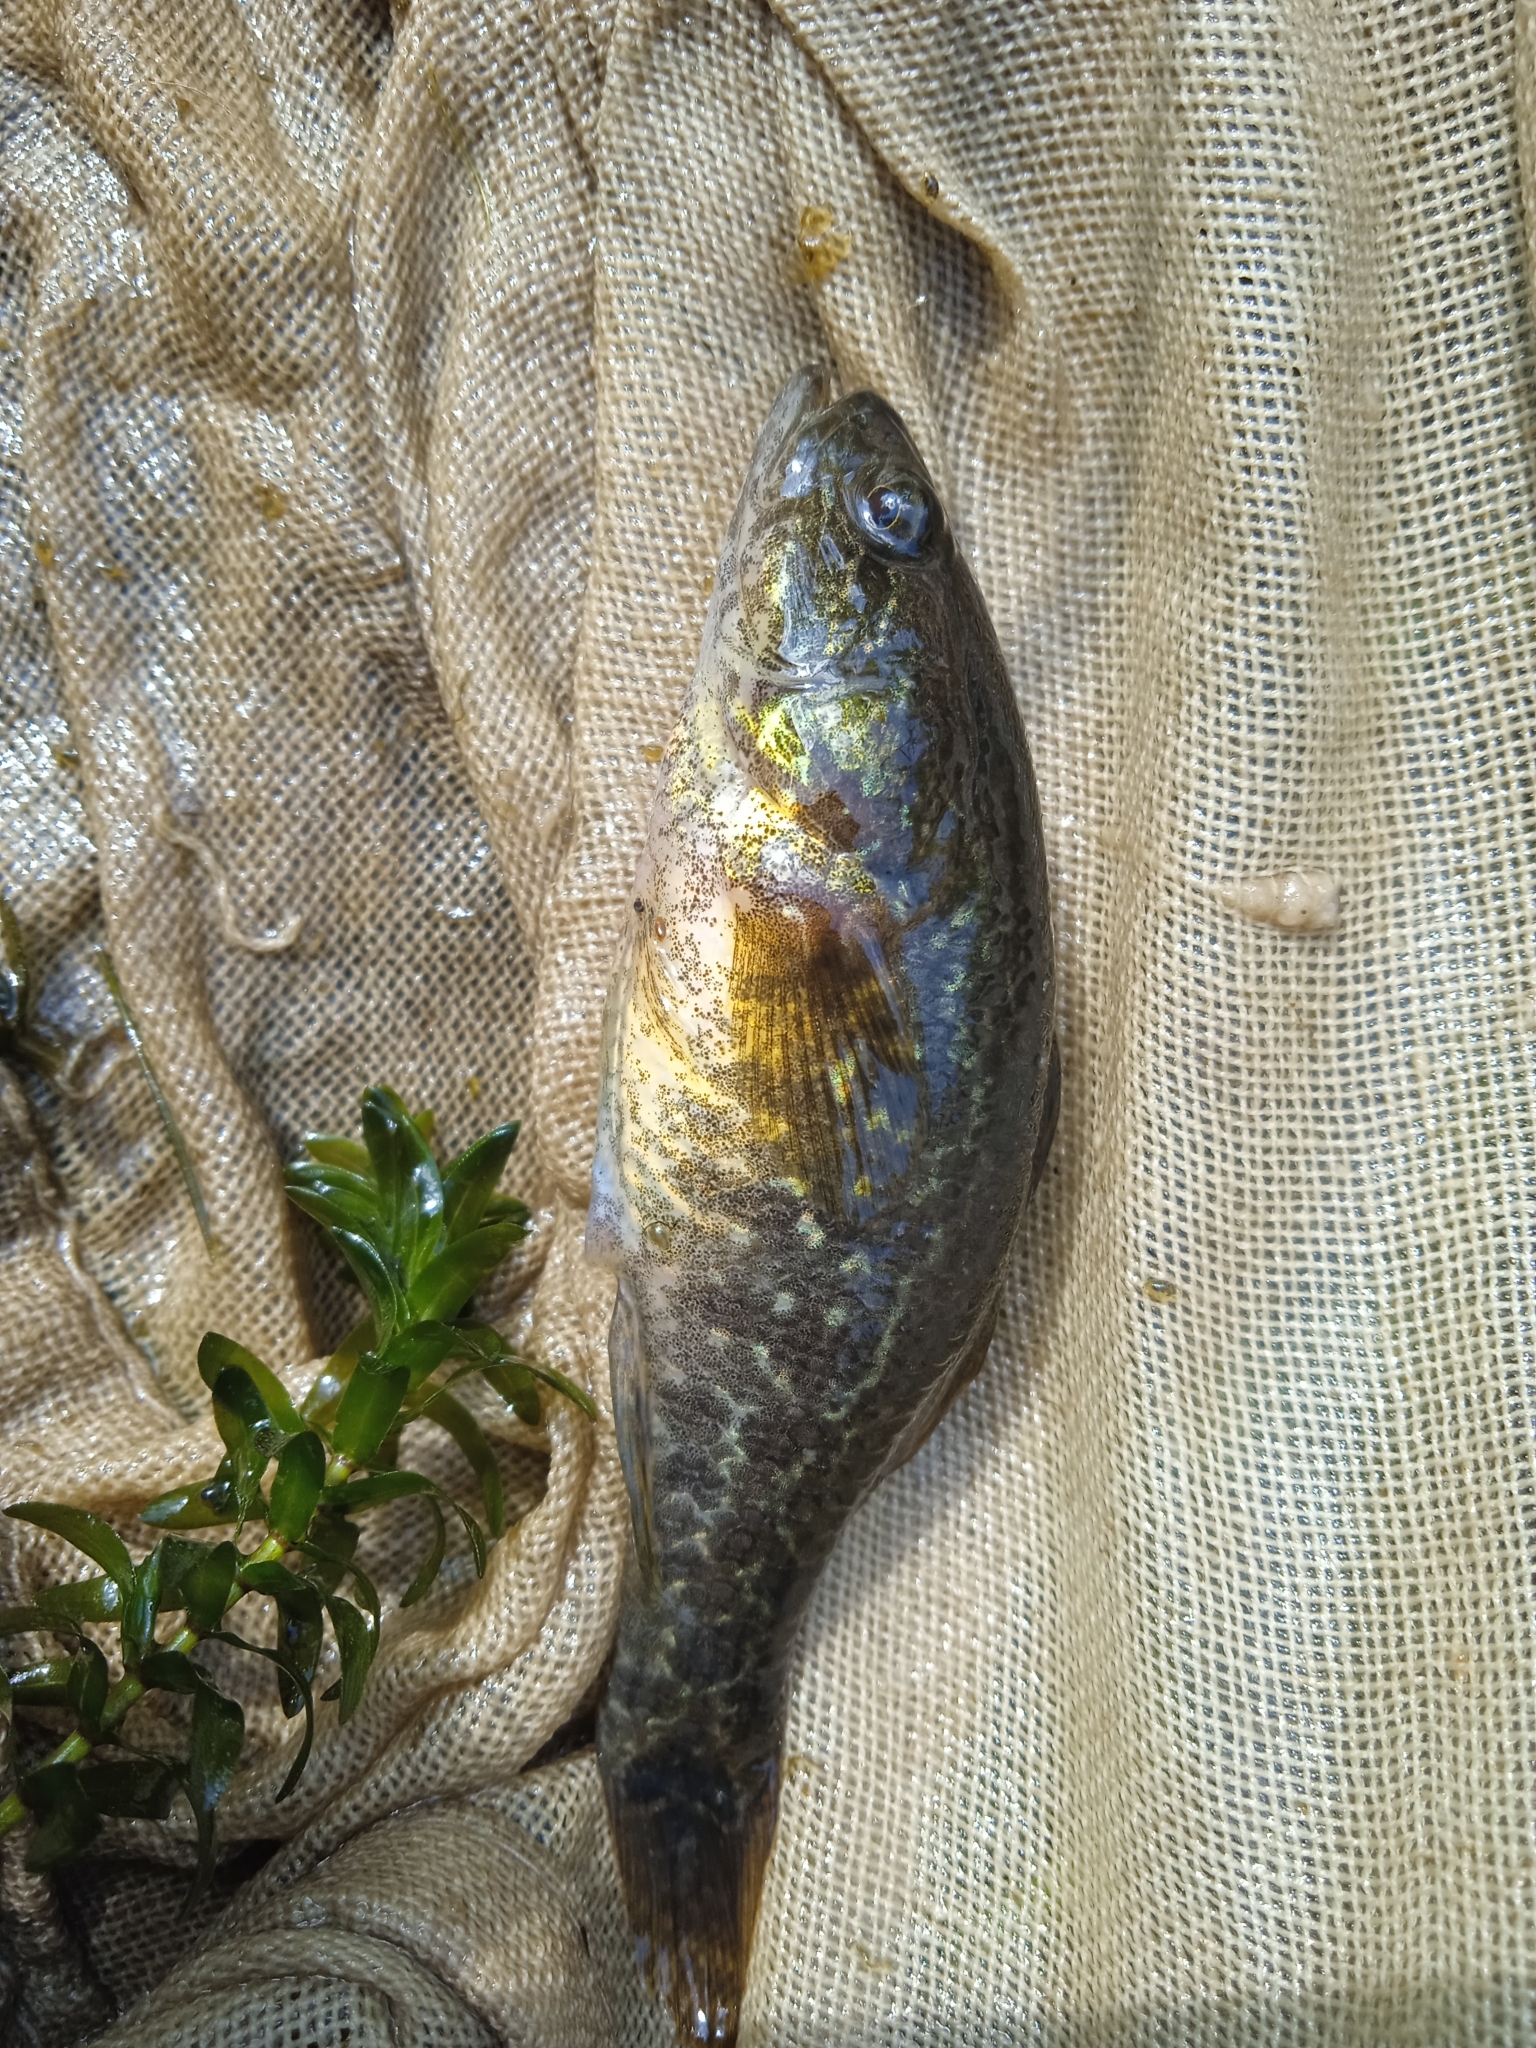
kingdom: Animalia
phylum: Chordata
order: Perciformes
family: Odontobutidae
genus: Perccottus
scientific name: Perccottus glenii
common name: Amur sleeper
